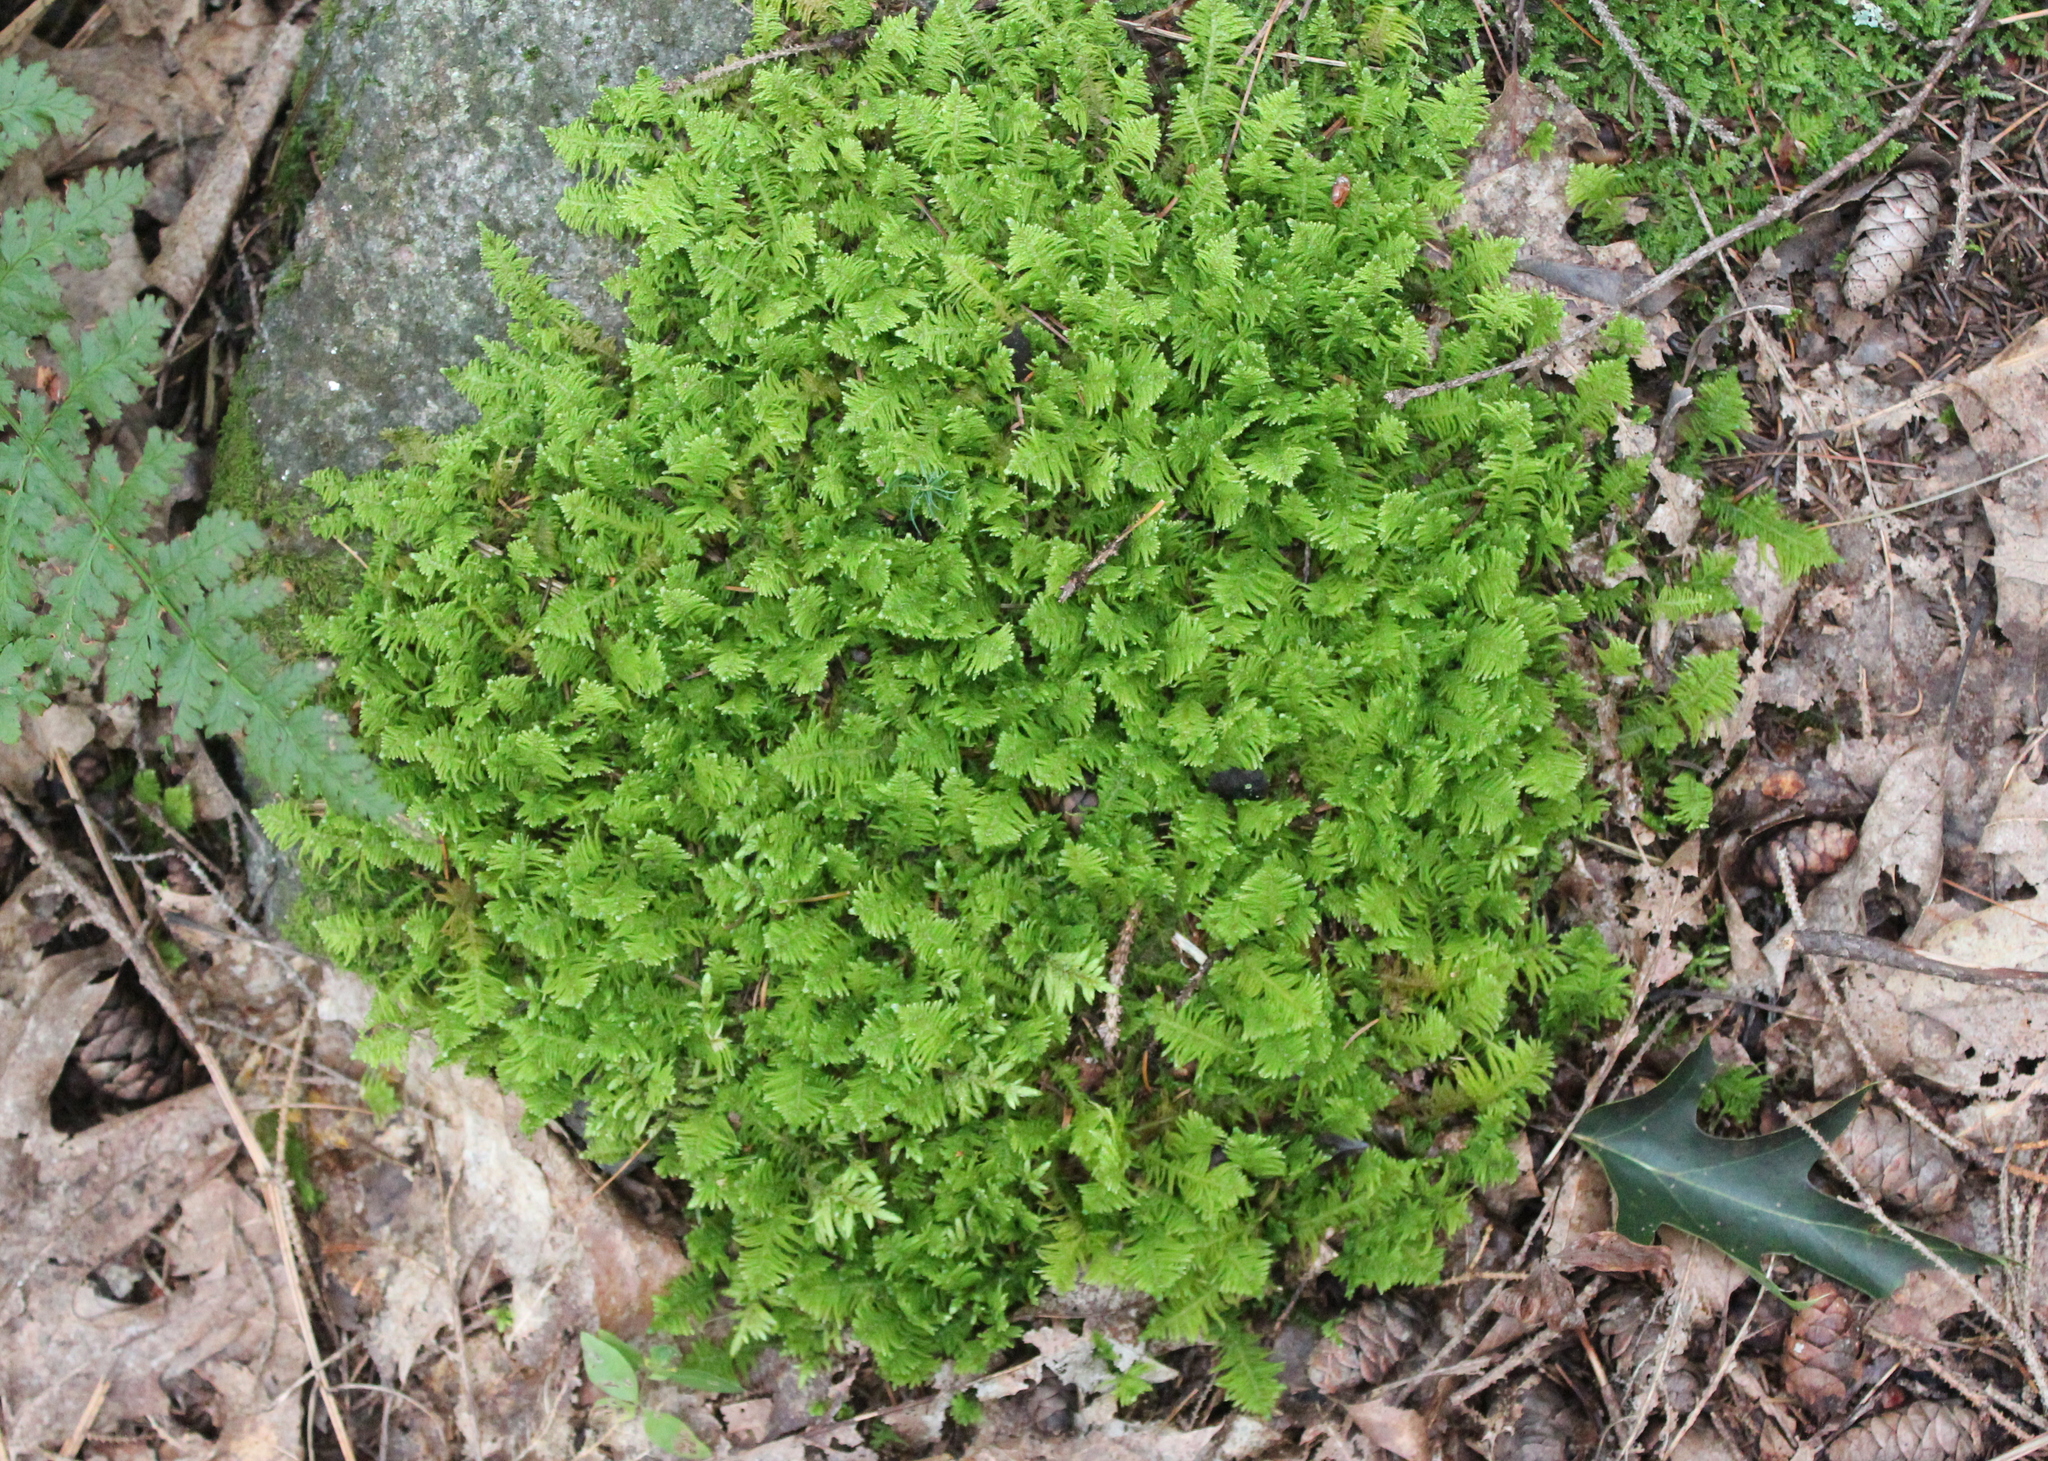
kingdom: Plantae
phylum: Bryophyta
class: Bryopsida
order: Hypnales
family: Pylaisiaceae
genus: Ptilium
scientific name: Ptilium crista-castrensis
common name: Knight's plume moss
